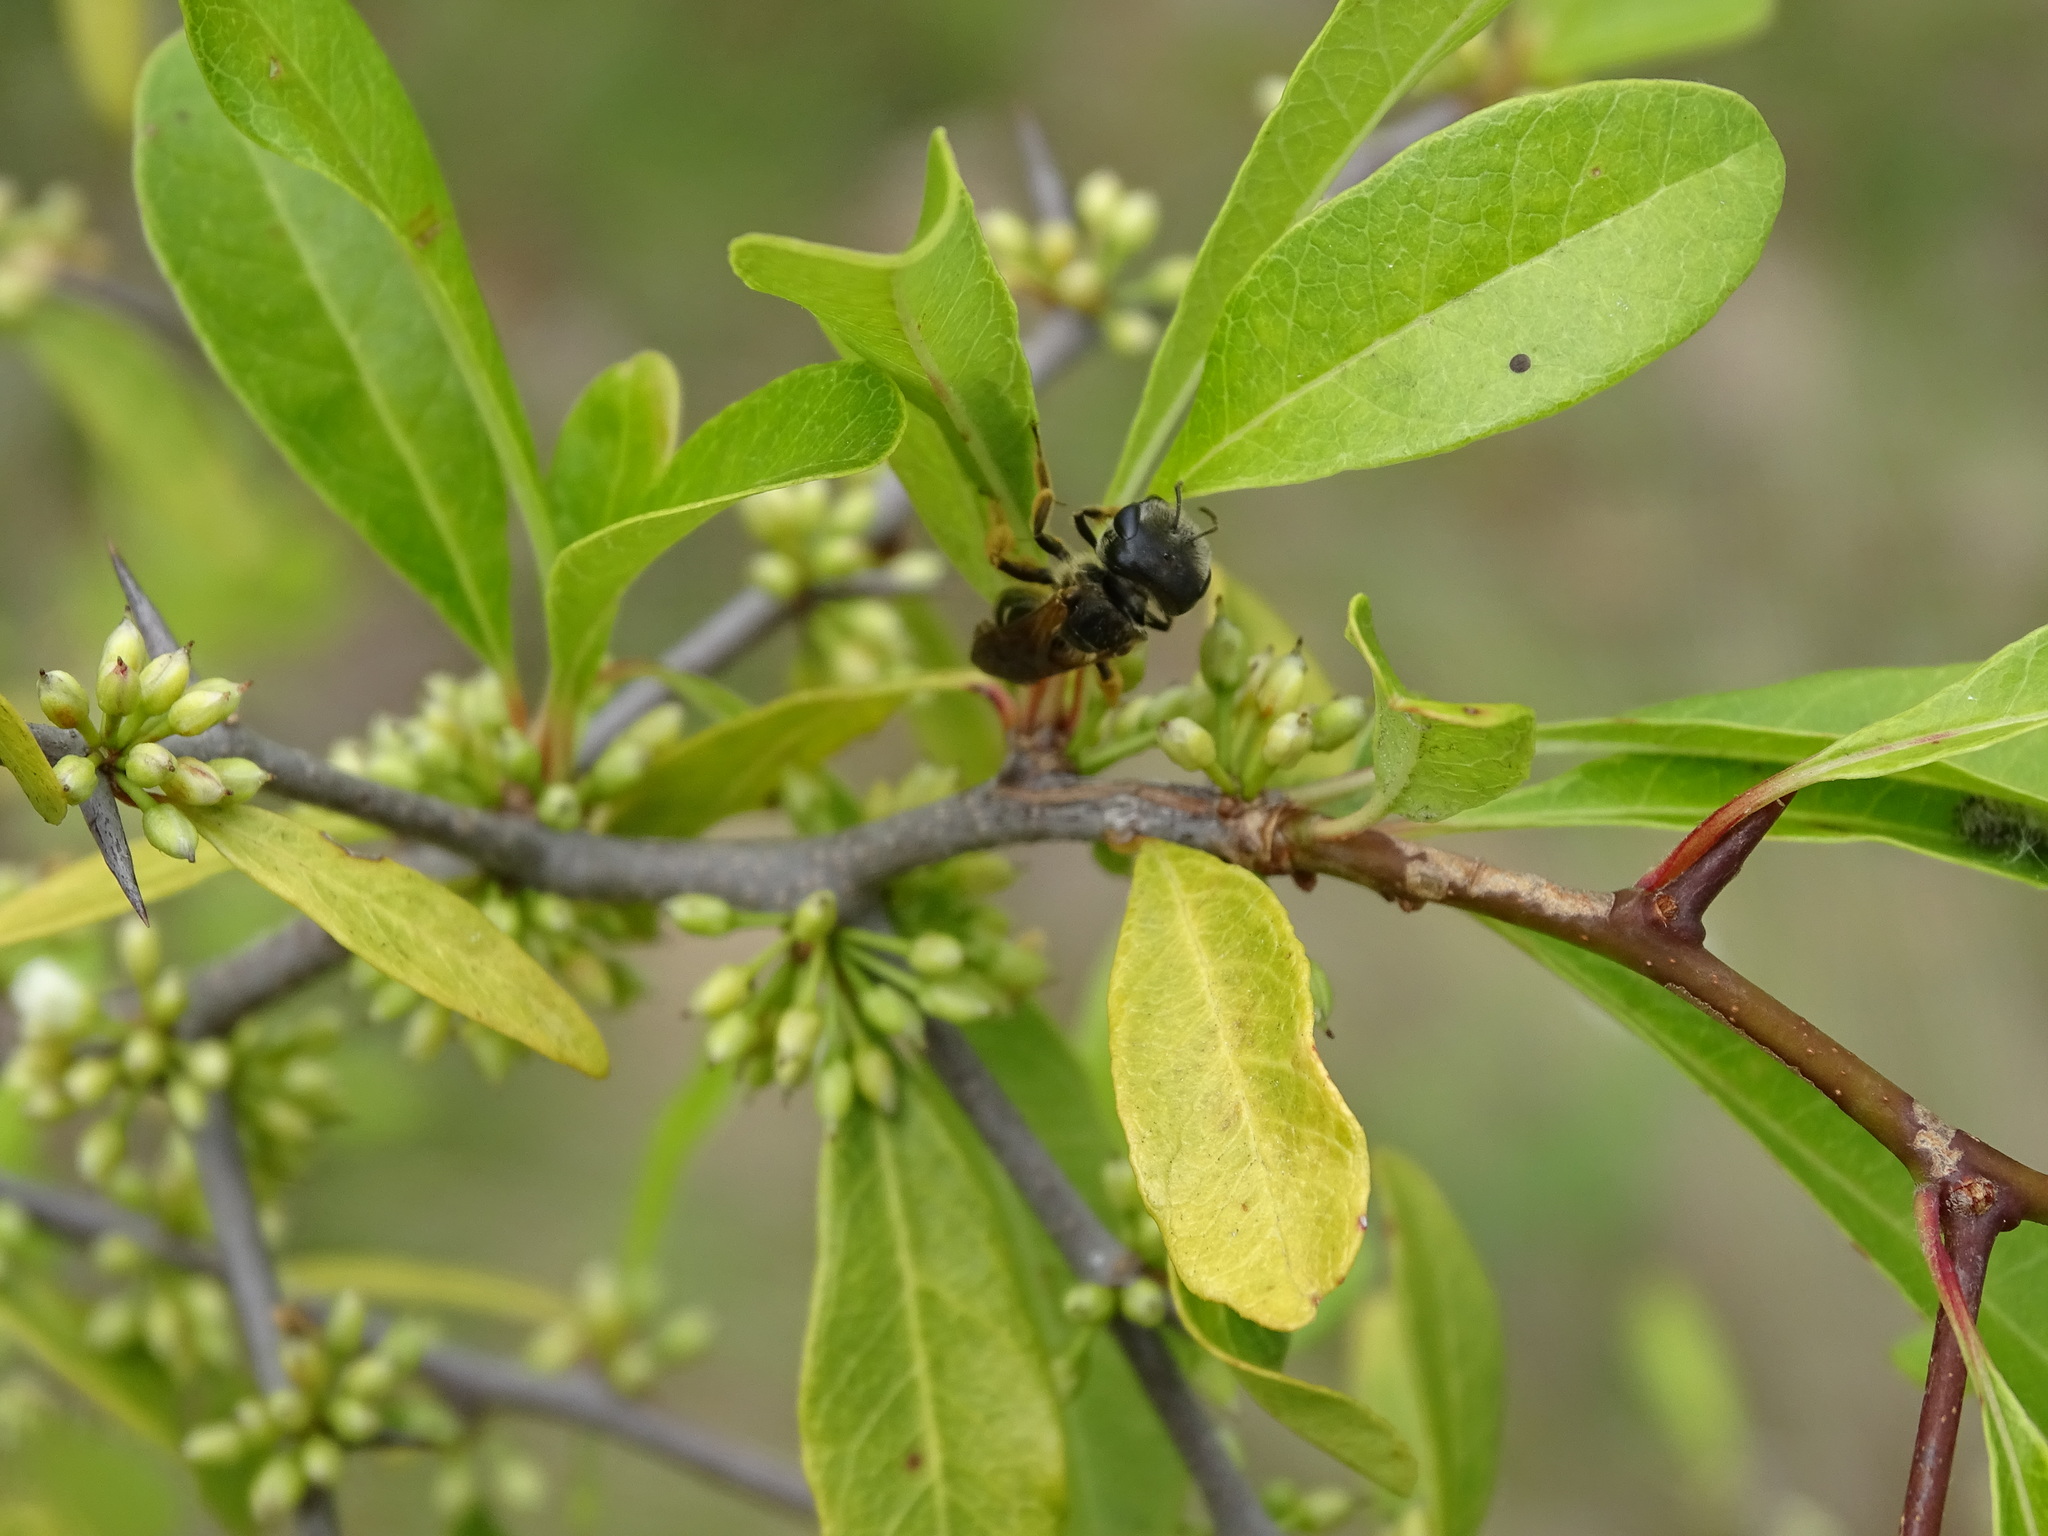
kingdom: Animalia
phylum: Arthropoda
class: Insecta
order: Hymenoptera
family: Halictidae
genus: Halictus
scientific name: Halictus poeyi
